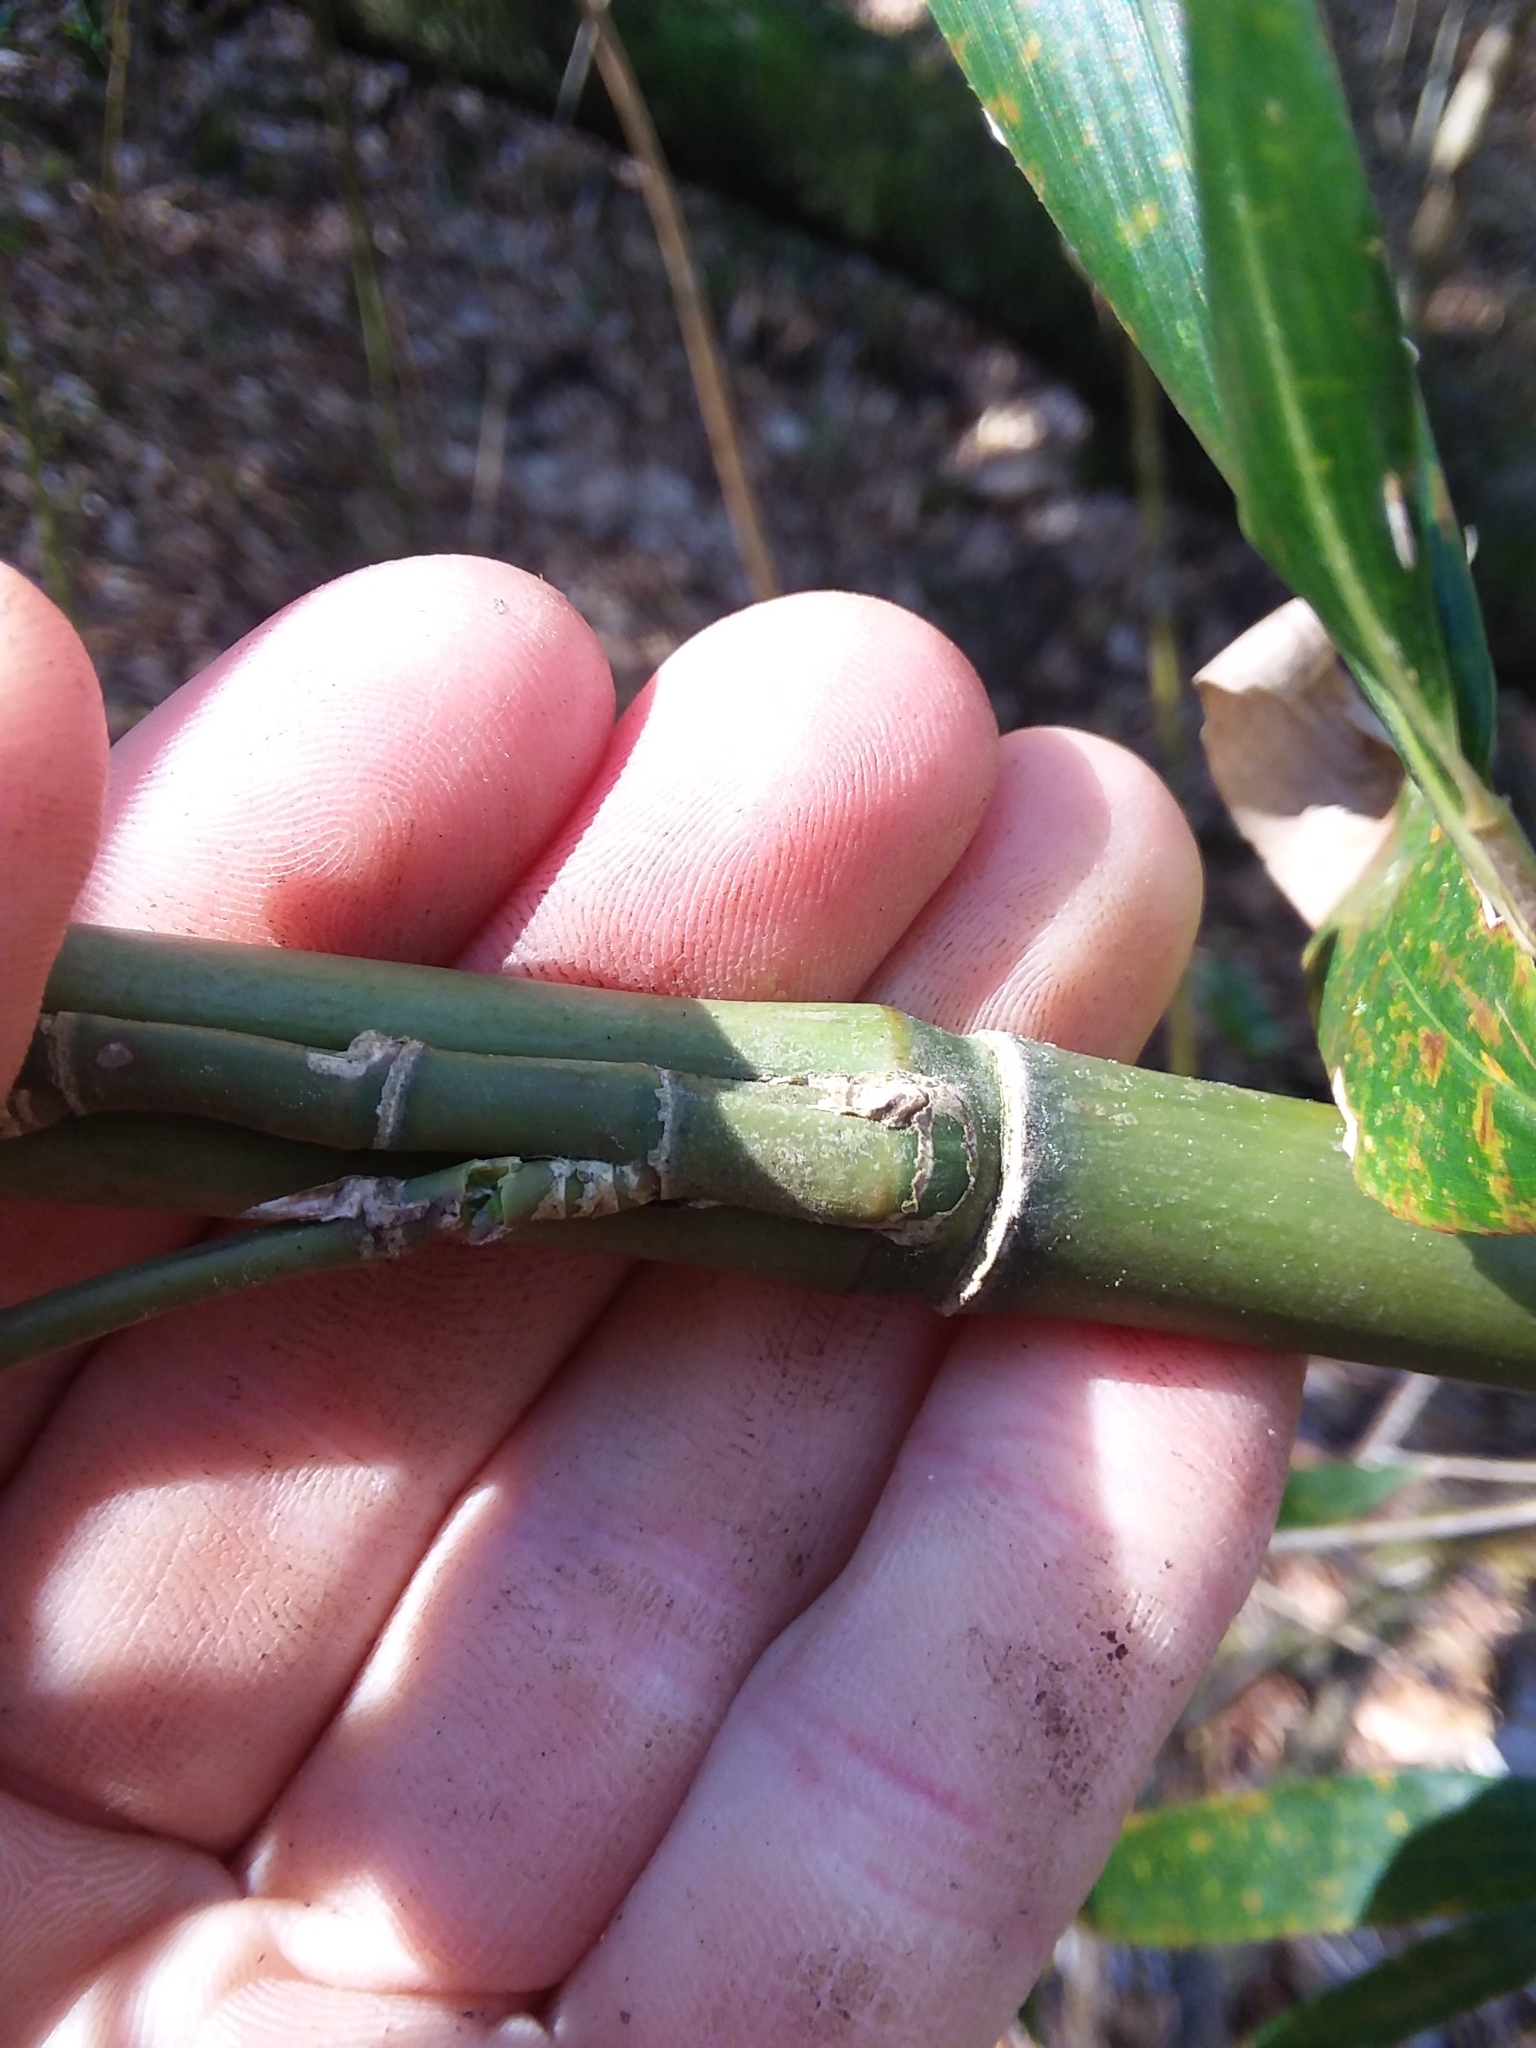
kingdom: Plantae
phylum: Tracheophyta
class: Liliopsida
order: Poales
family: Poaceae
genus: Arundinaria
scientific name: Arundinaria gigantea
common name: Giant cane
